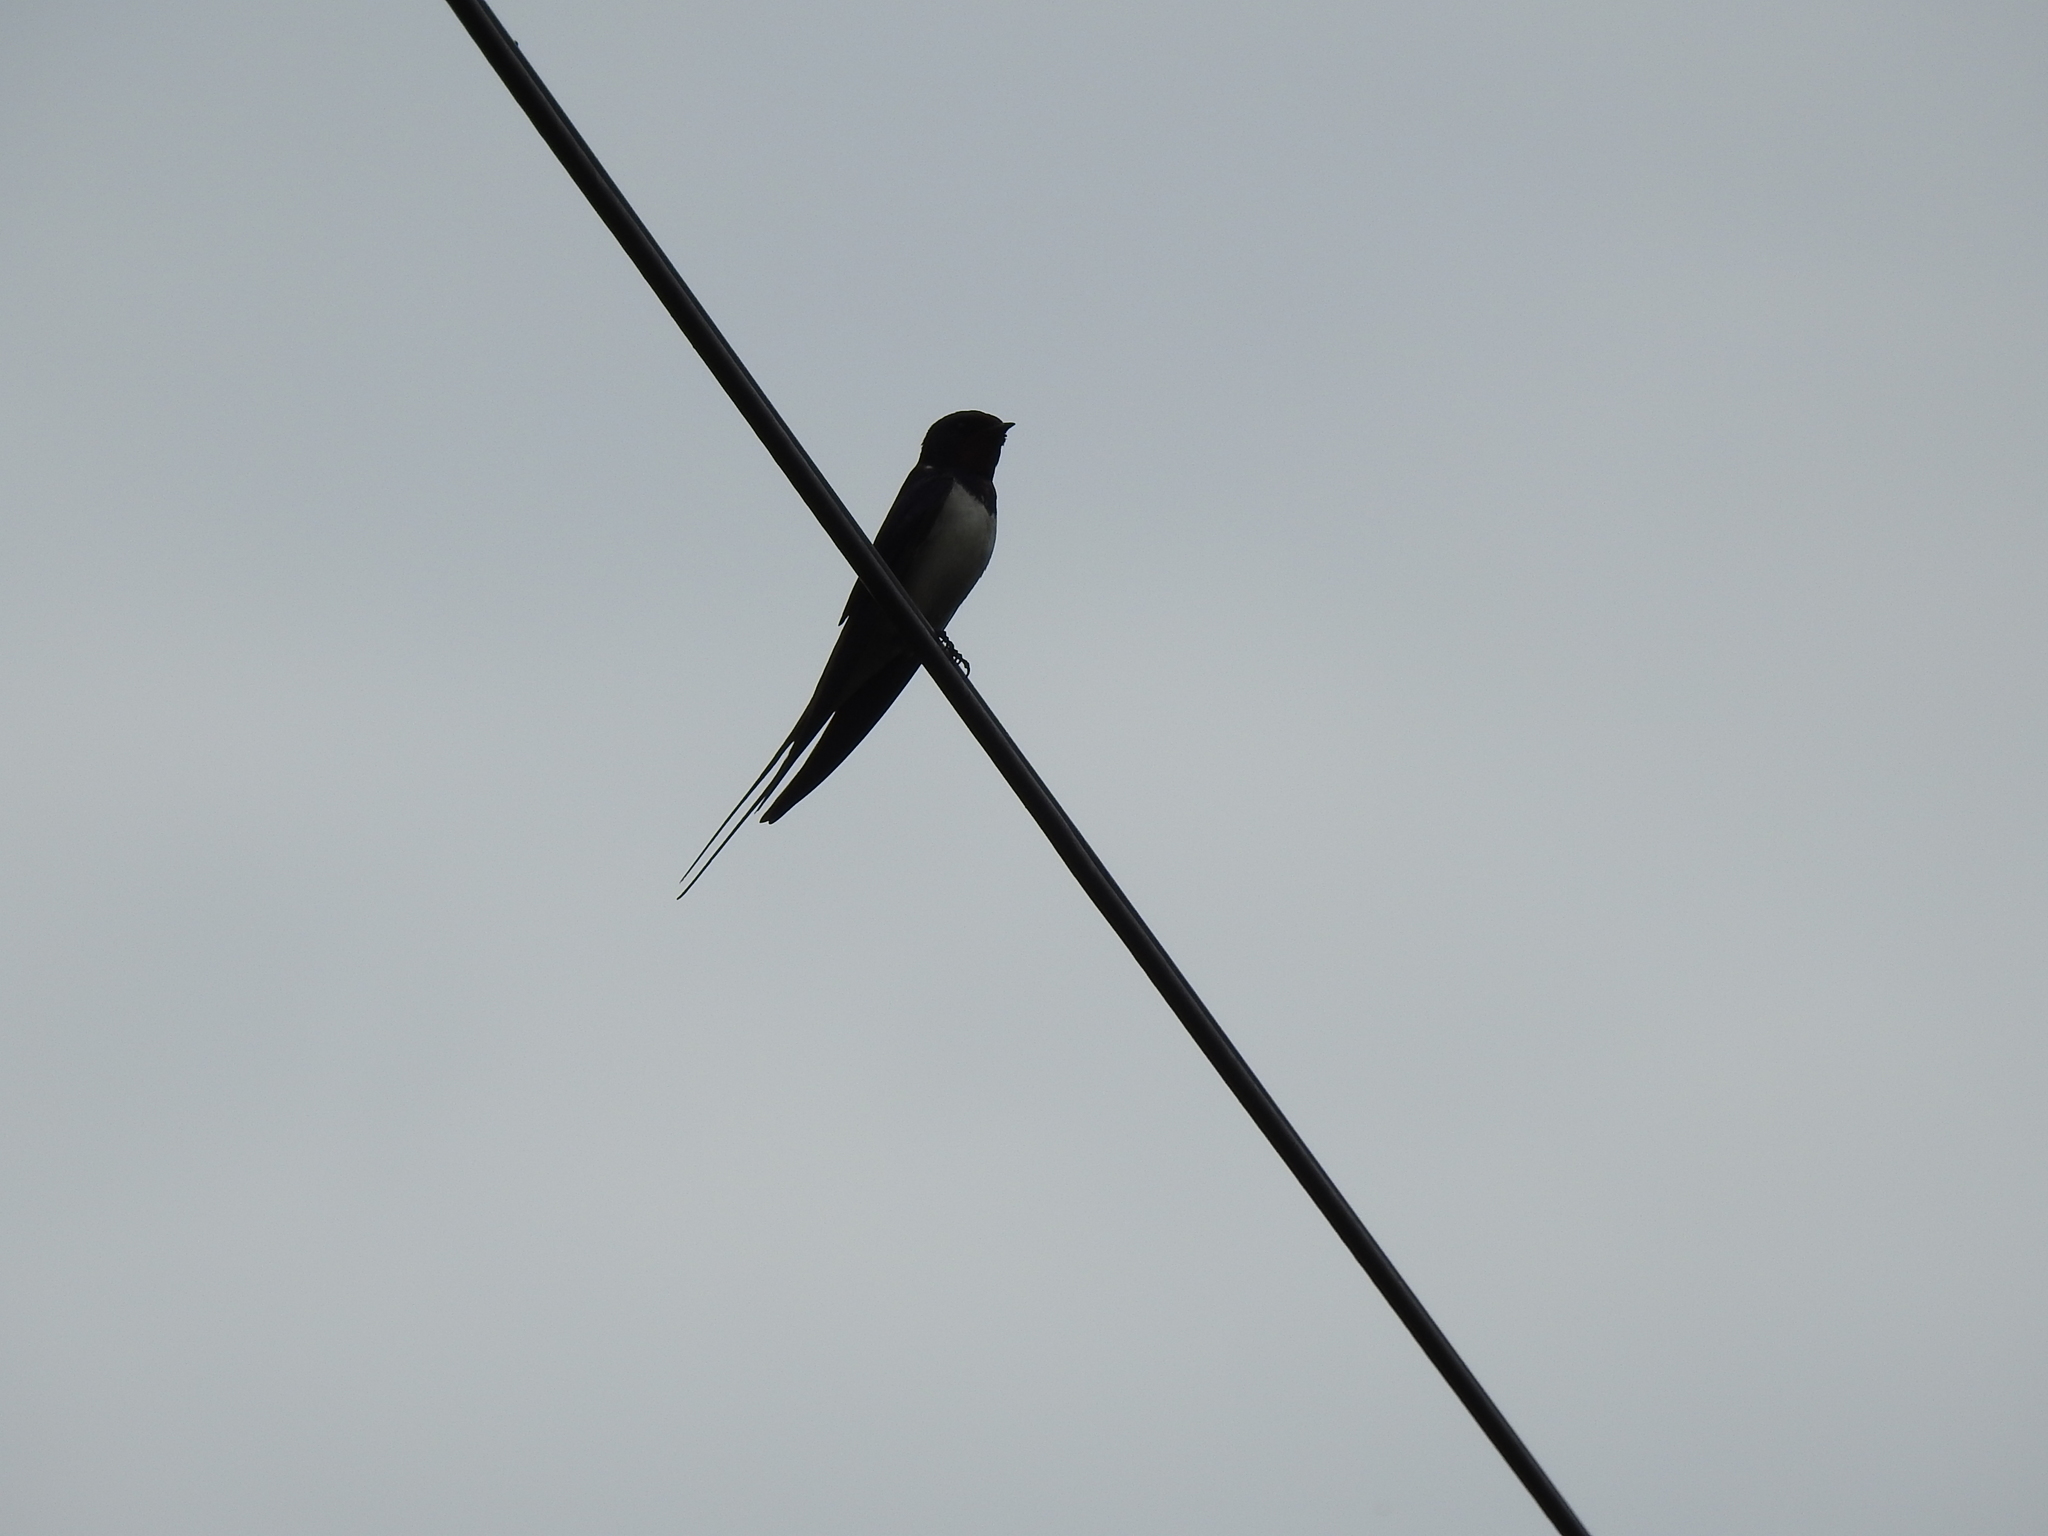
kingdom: Animalia
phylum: Chordata
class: Aves
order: Passeriformes
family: Hirundinidae
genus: Hirundo
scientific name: Hirundo rustica
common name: Barn swallow
